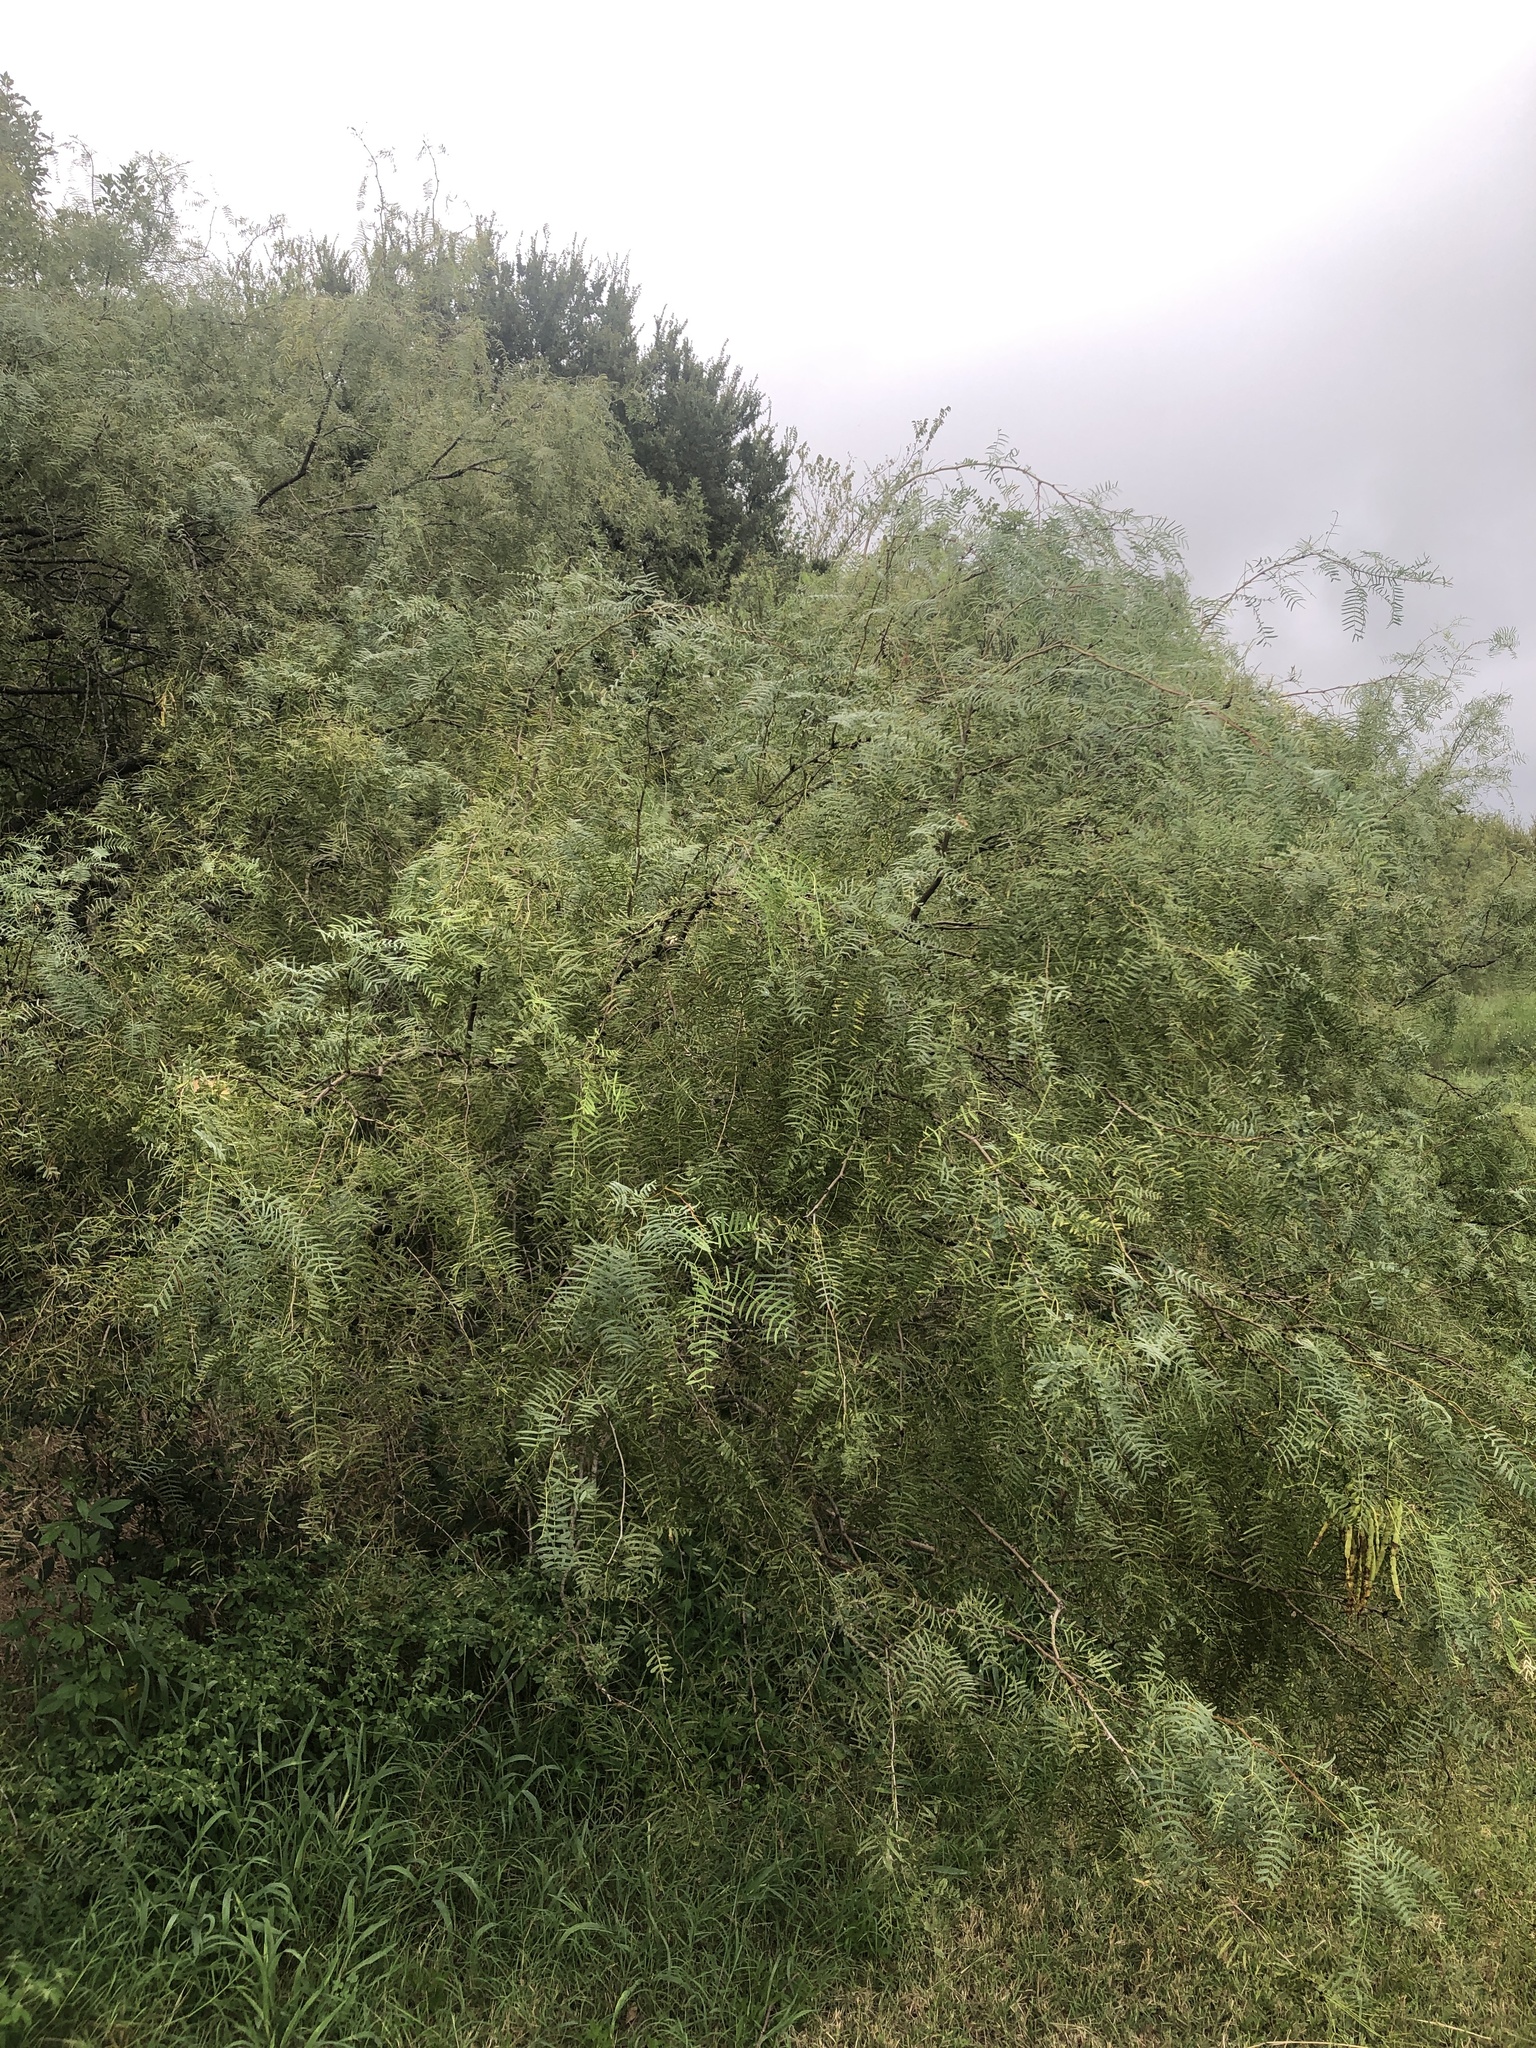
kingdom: Plantae
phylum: Tracheophyta
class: Magnoliopsida
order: Fabales
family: Fabaceae
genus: Prosopis
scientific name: Prosopis glandulosa
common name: Honey mesquite
